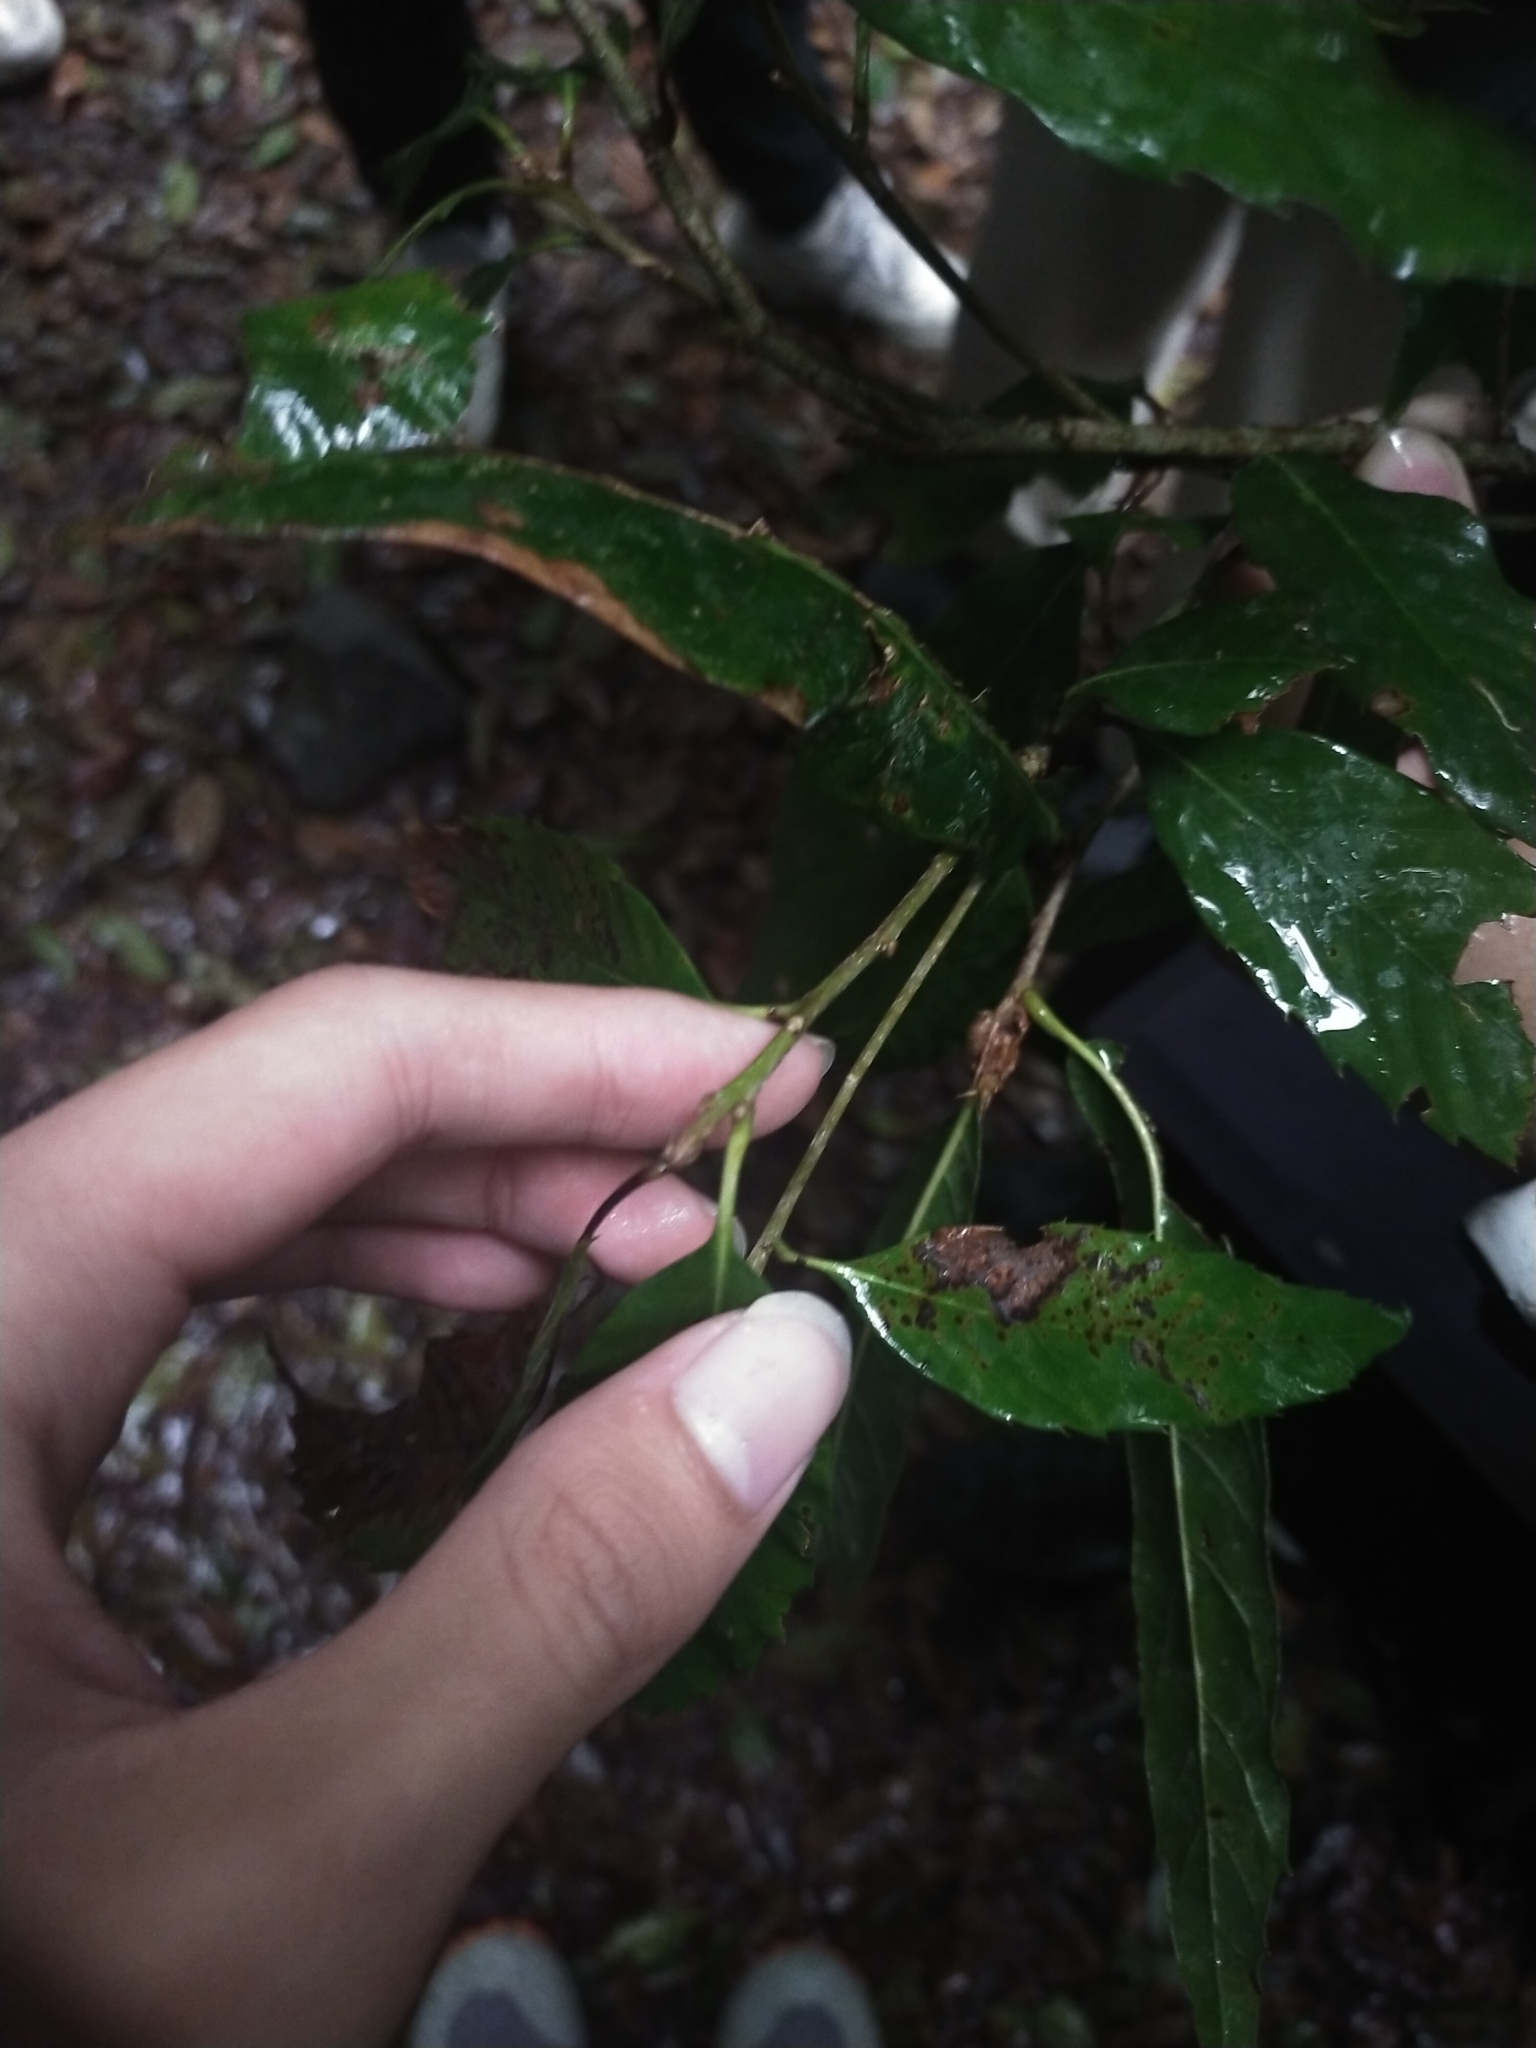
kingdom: Plantae
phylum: Tracheophyta
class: Magnoliopsida
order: Fagales
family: Fagaceae
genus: Quercus
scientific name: Quercus stenophylloides
